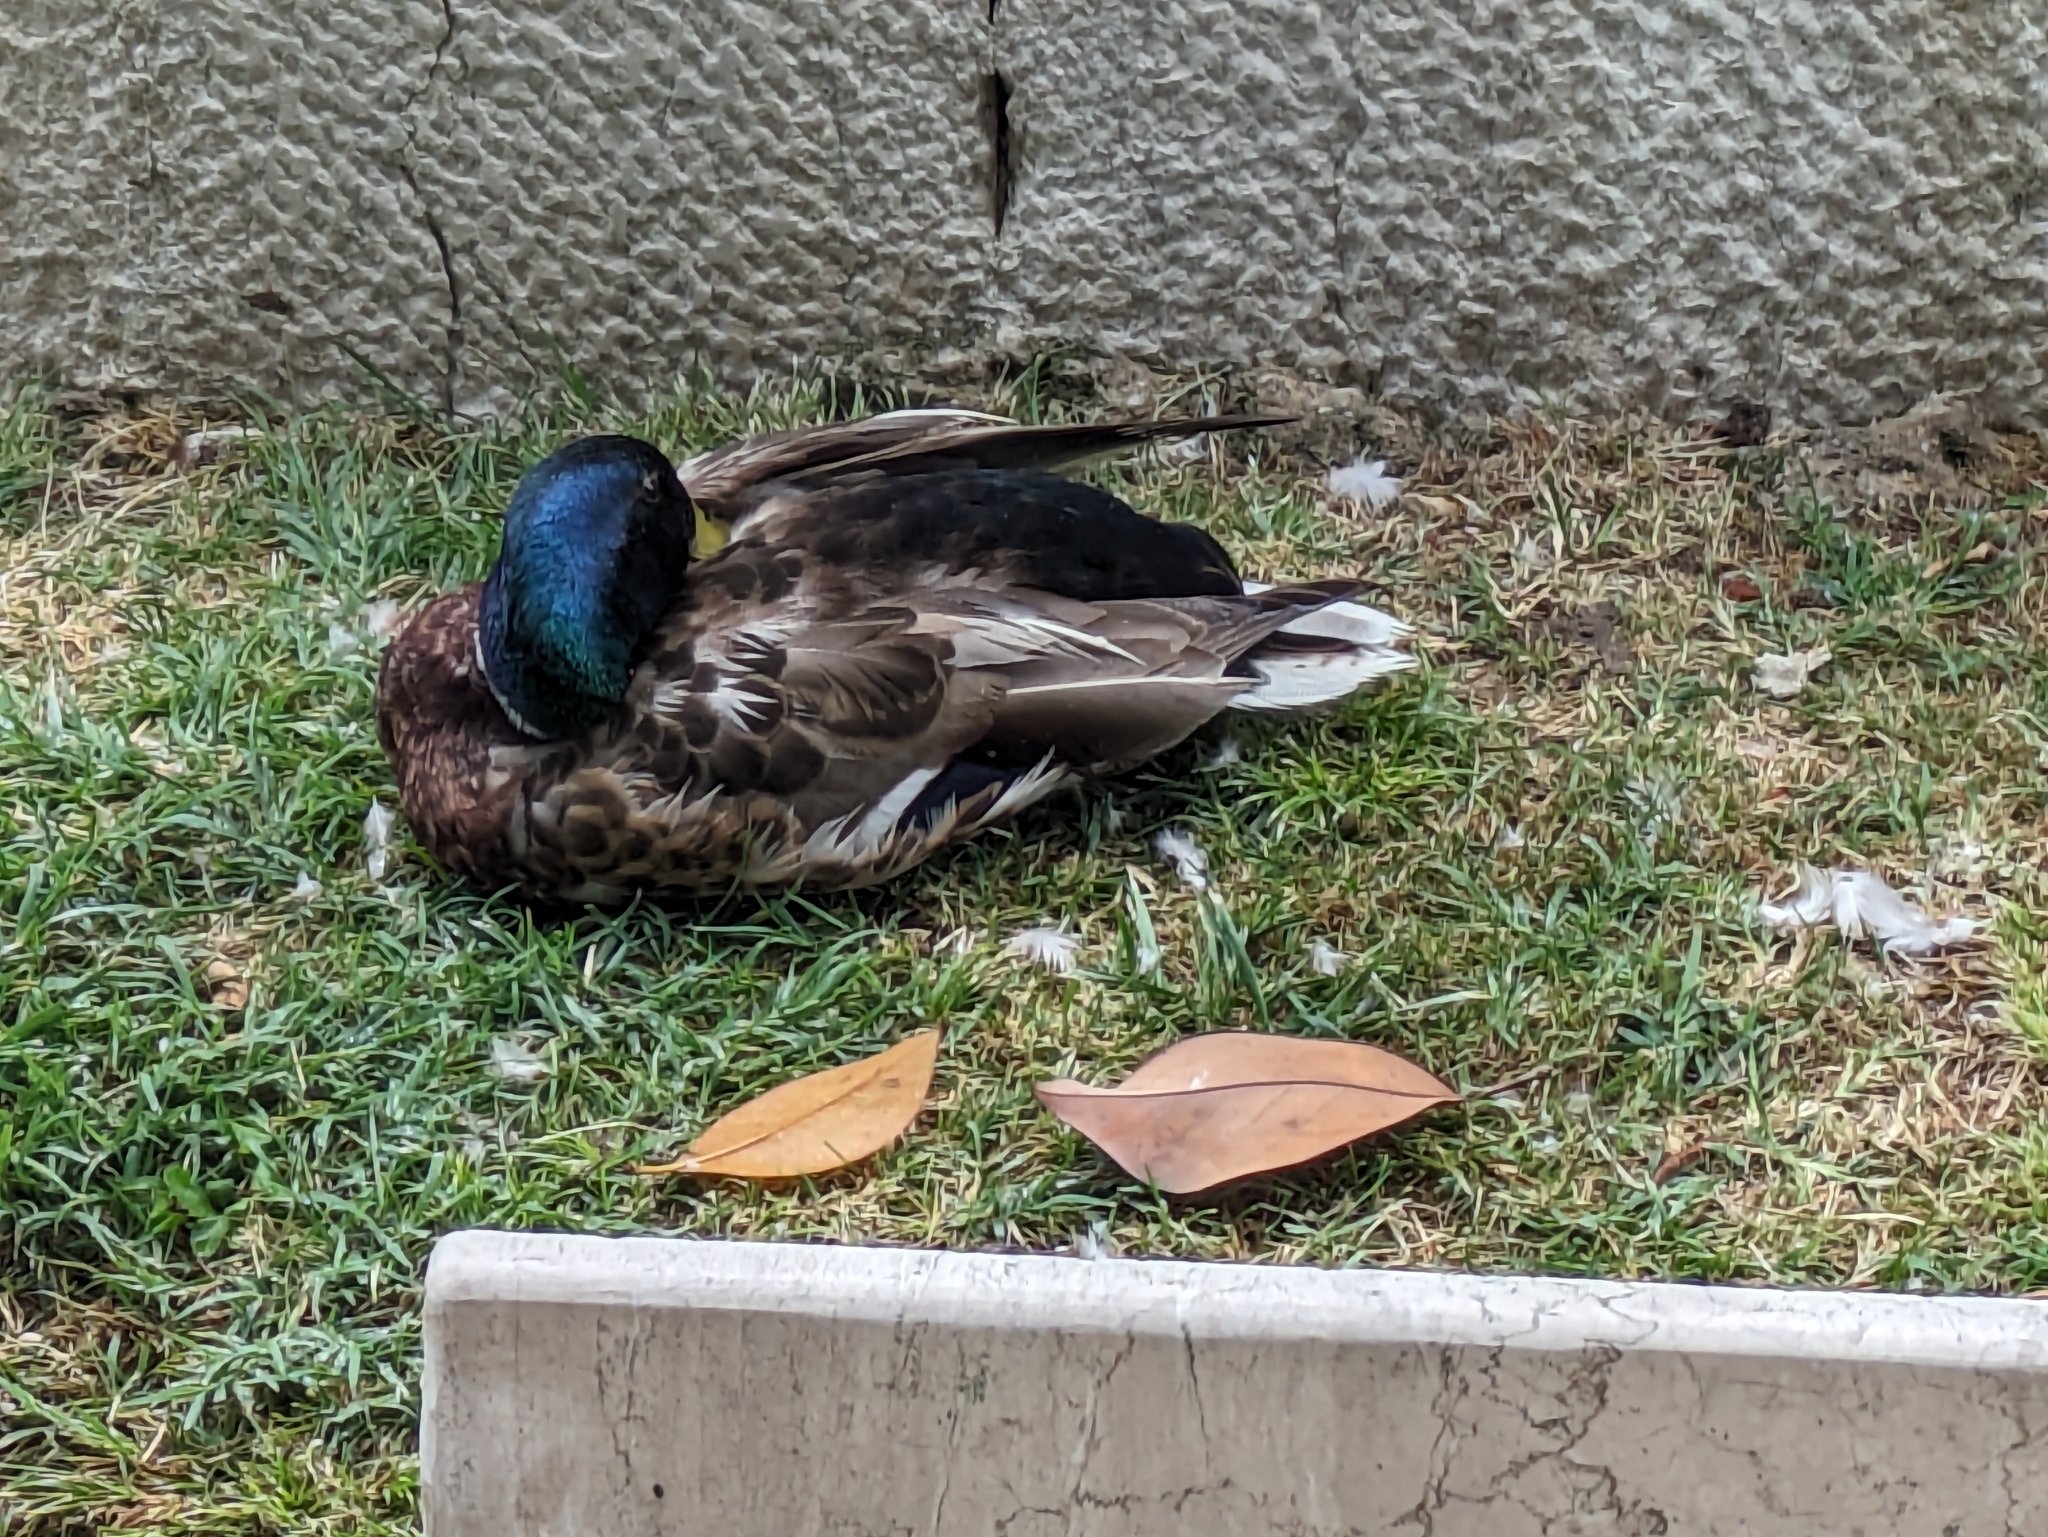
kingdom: Animalia
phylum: Chordata
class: Aves
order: Anseriformes
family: Anatidae
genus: Anas
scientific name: Anas platyrhynchos
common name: Mallard
